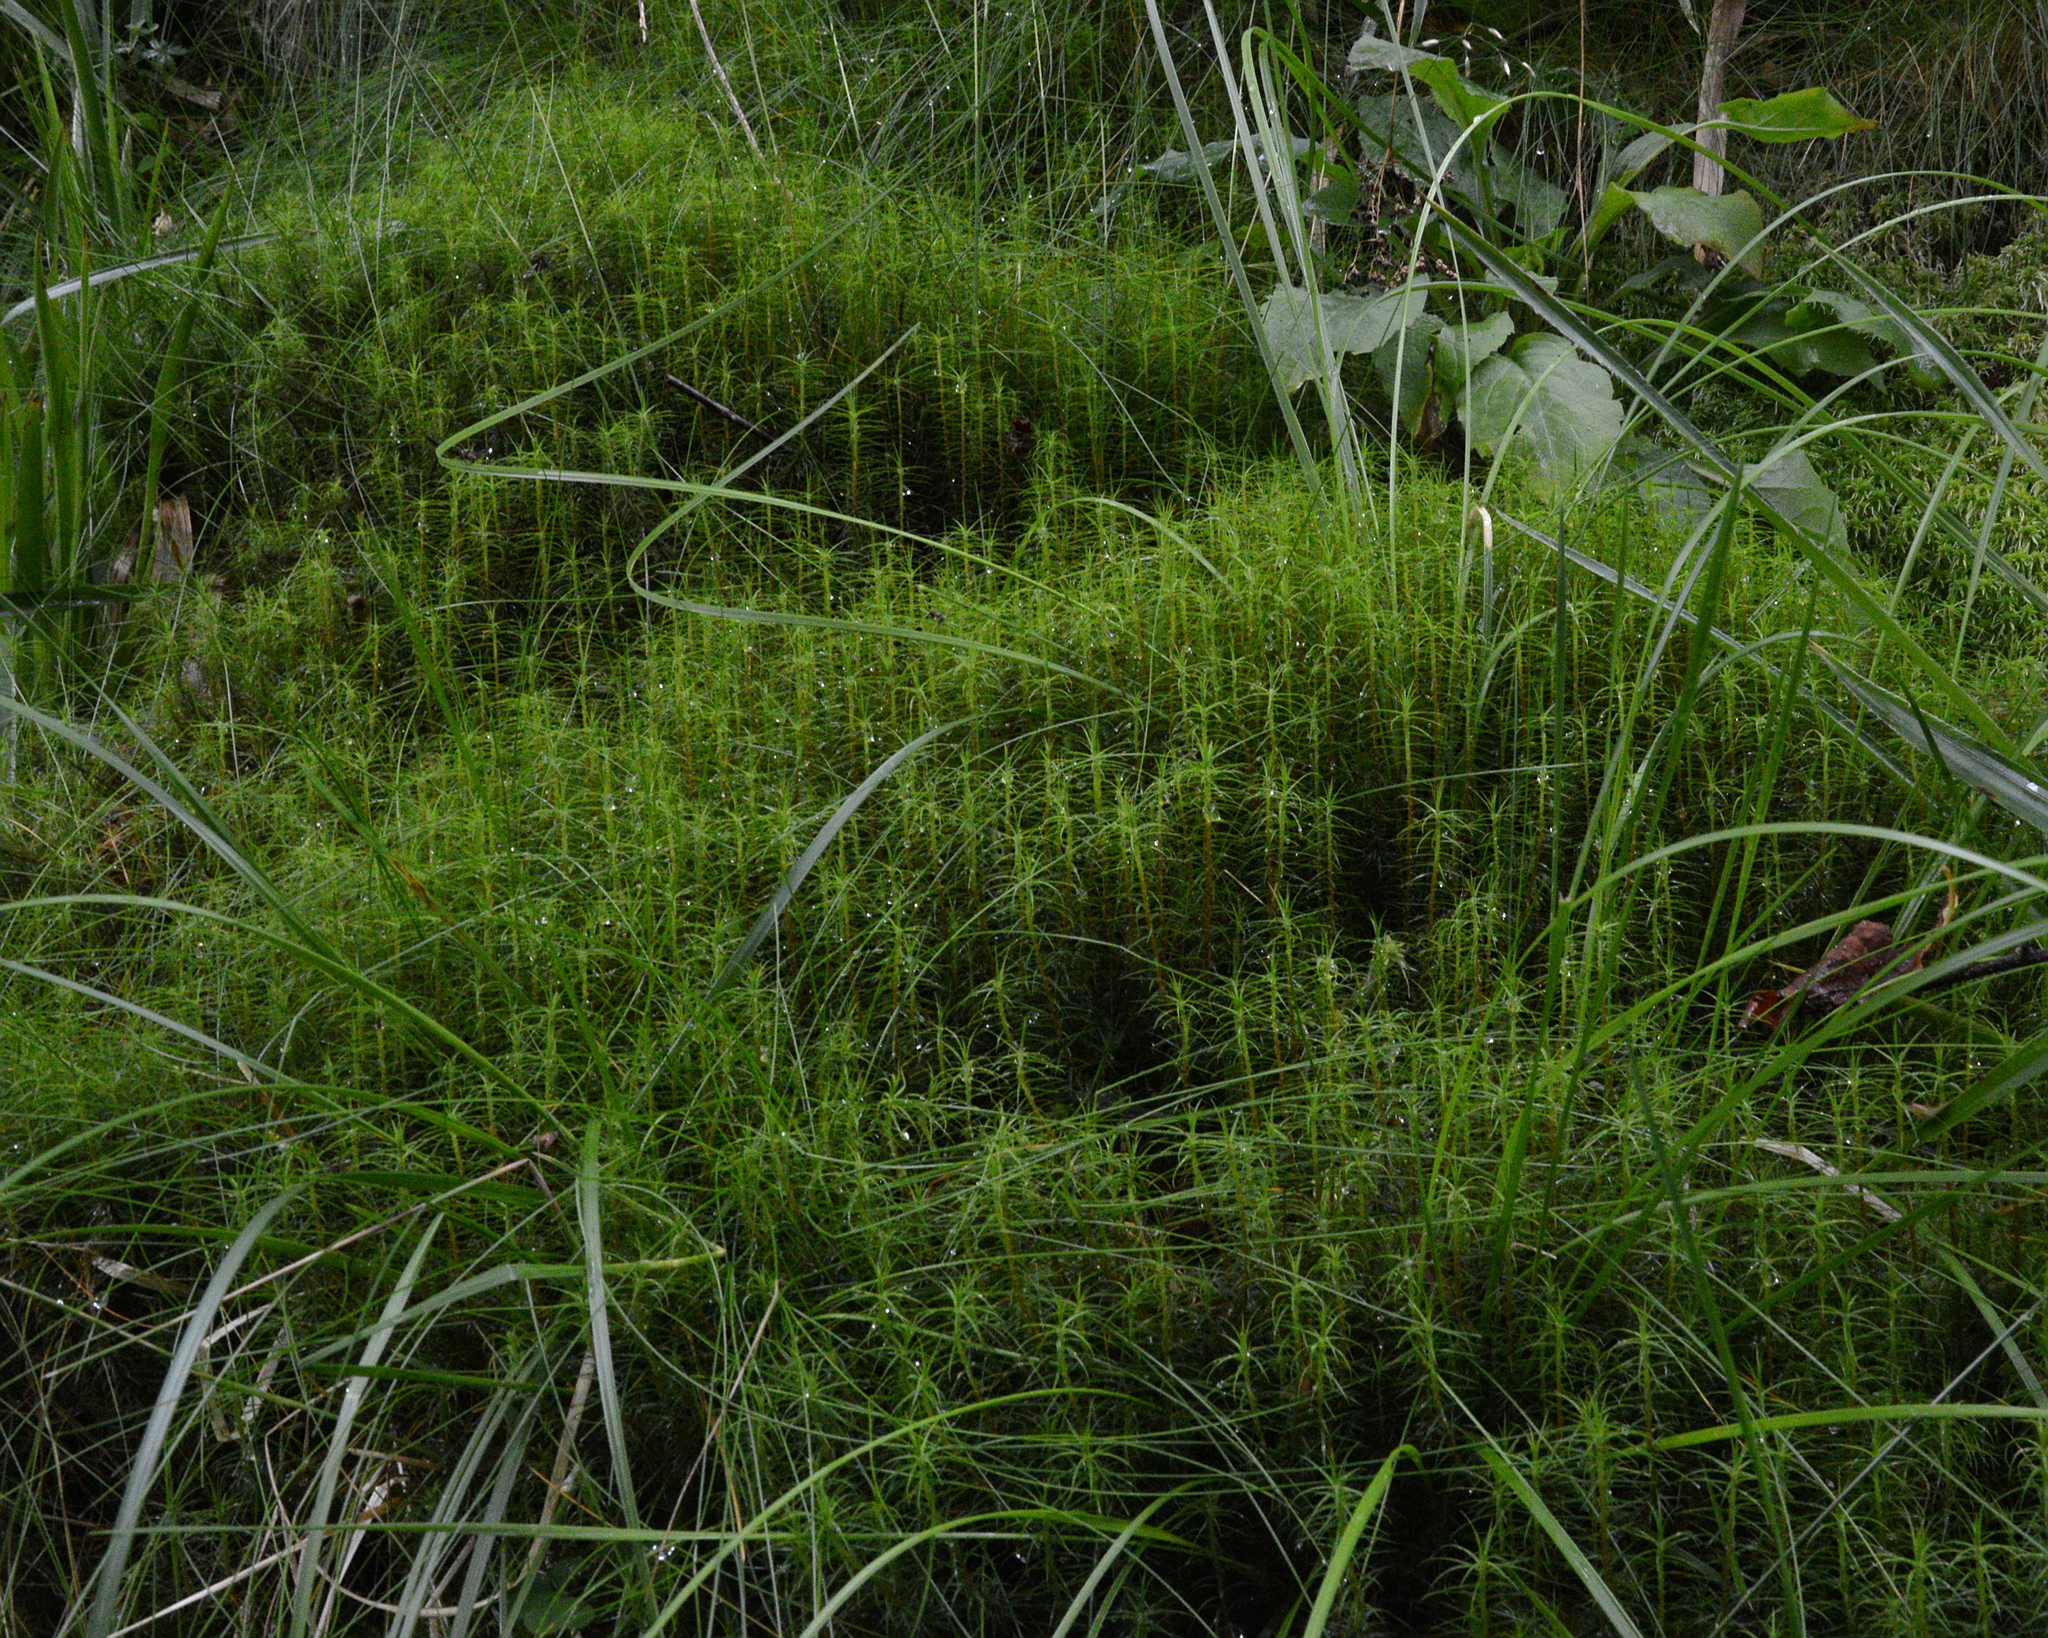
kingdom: Plantae
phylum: Bryophyta
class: Polytrichopsida
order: Polytrichales
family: Polytrichaceae
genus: Polytrichum
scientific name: Polytrichum commune
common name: Common haircap
